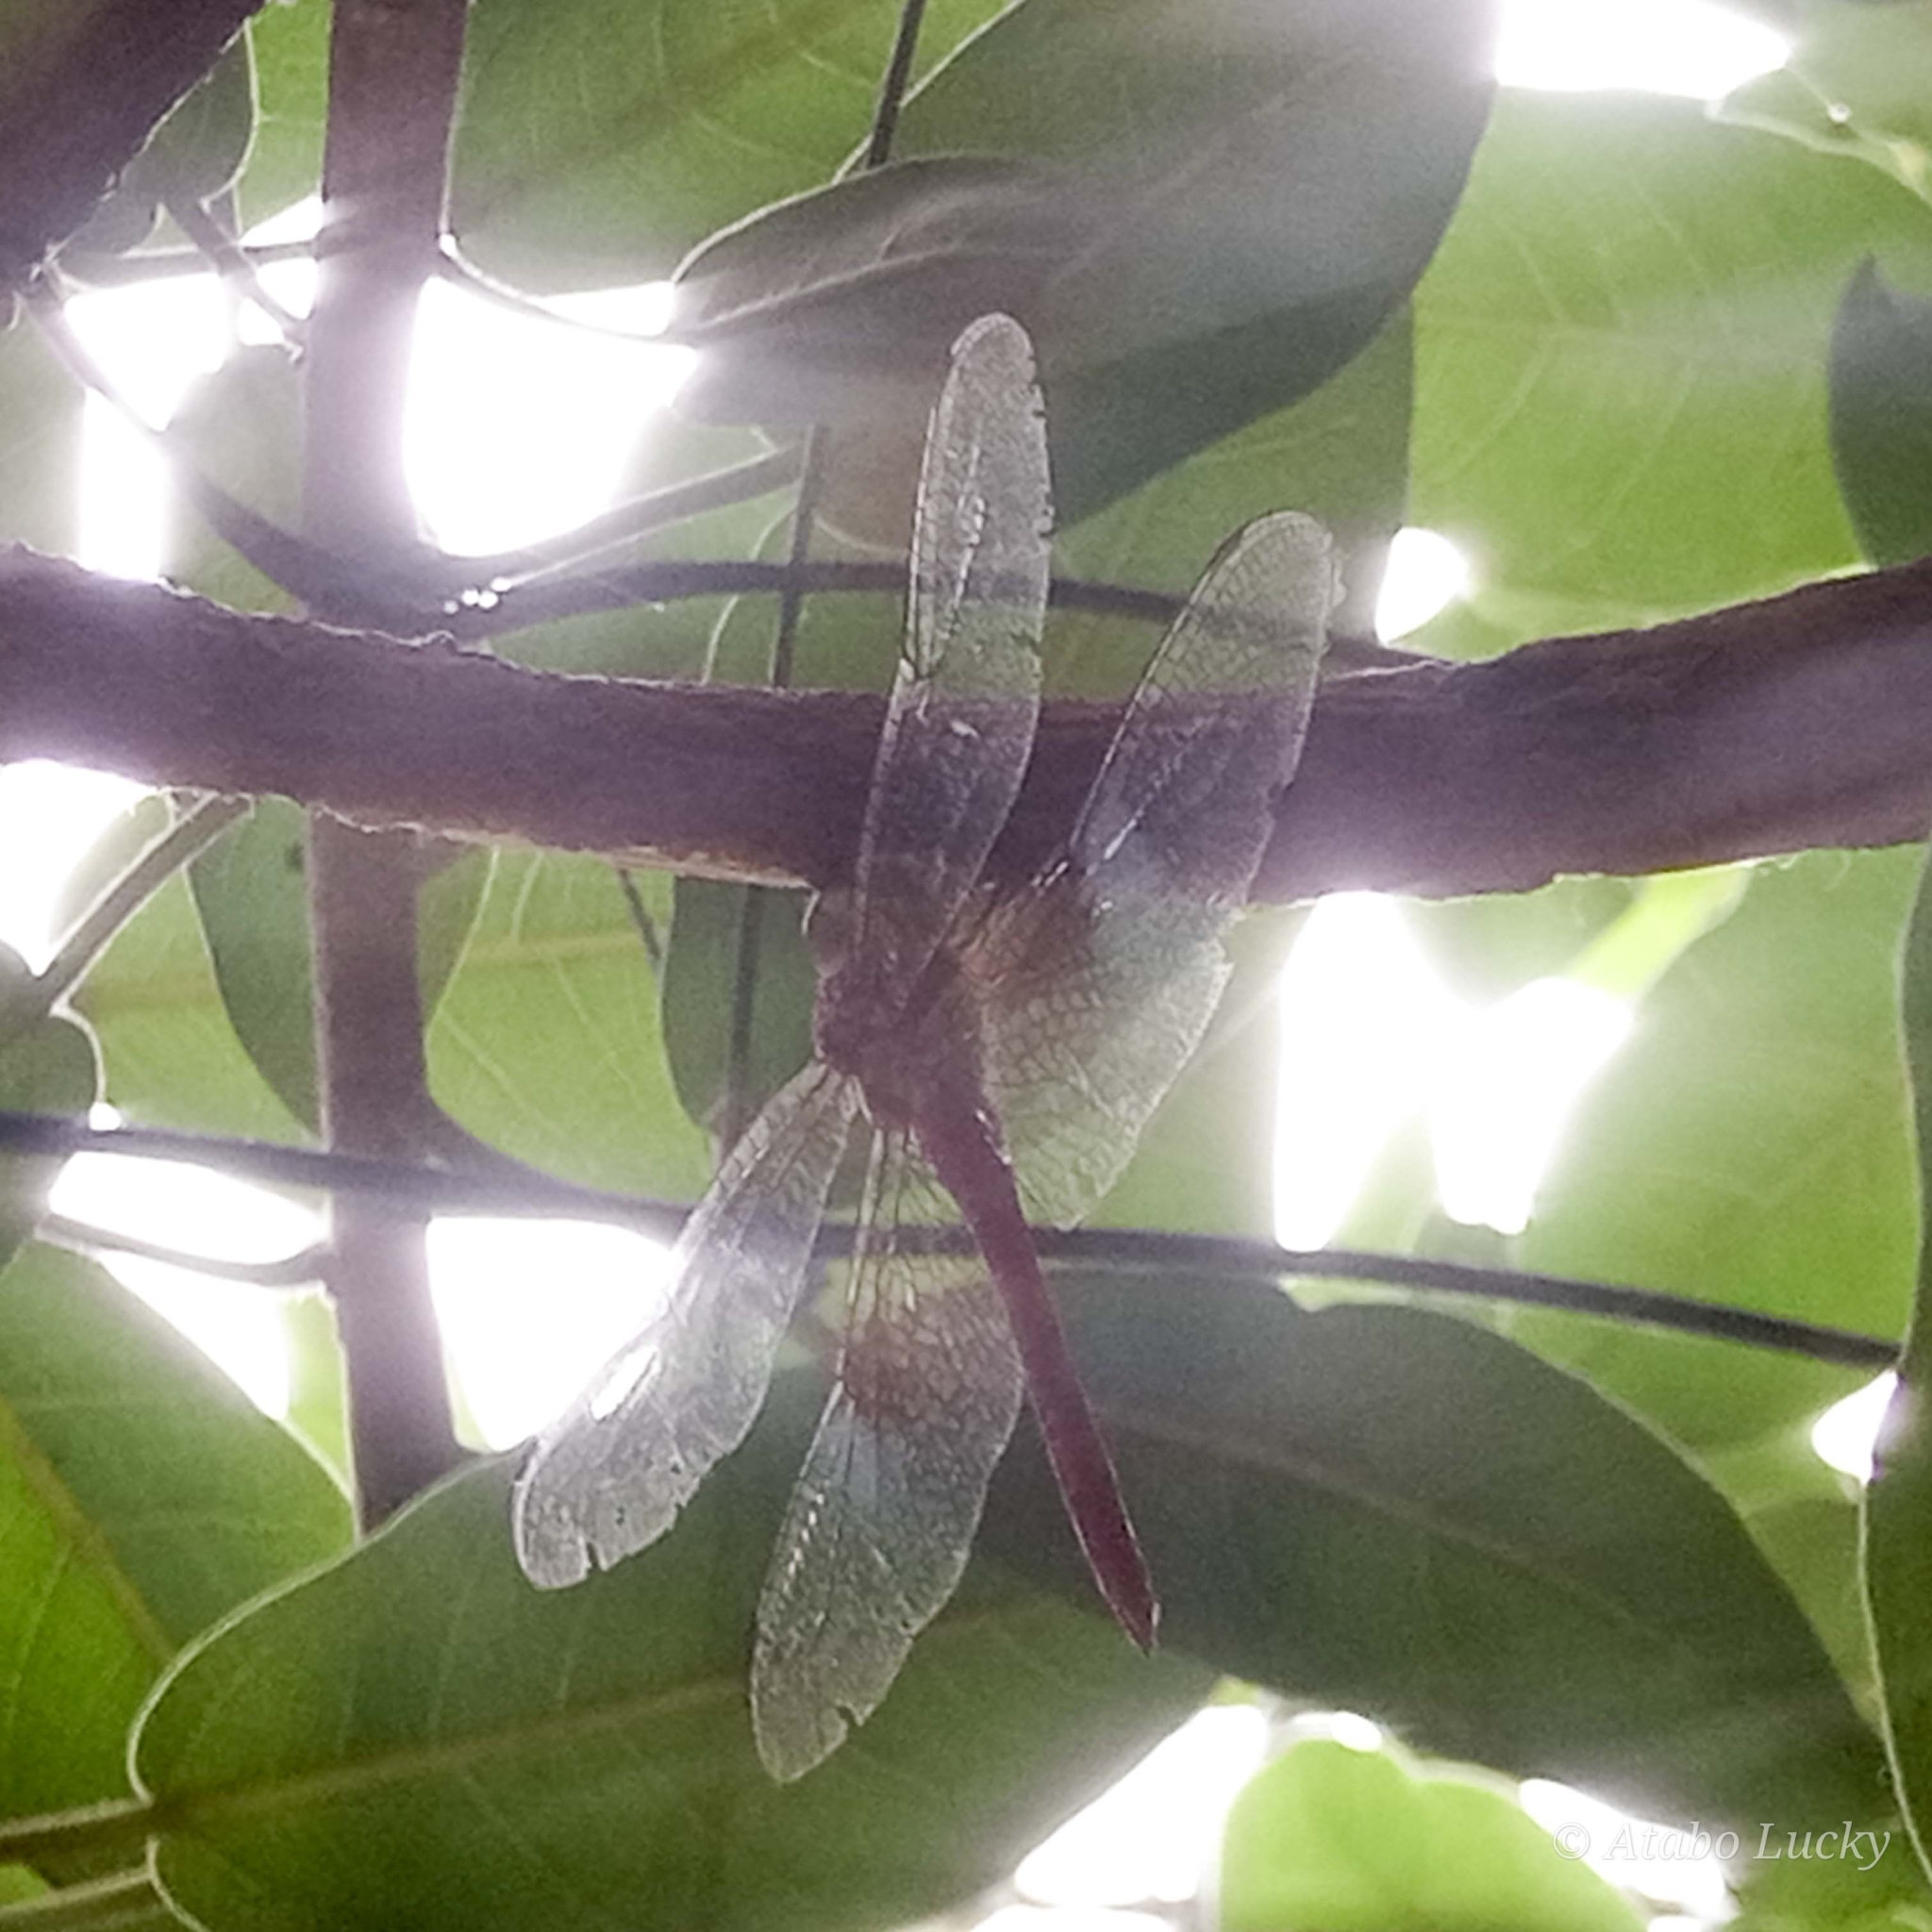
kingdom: Animalia
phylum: Arthropoda
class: Insecta
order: Odonata
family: Libellulidae
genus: Tholymis
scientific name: Tholymis tillarga
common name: Coral-tailed cloud wing
